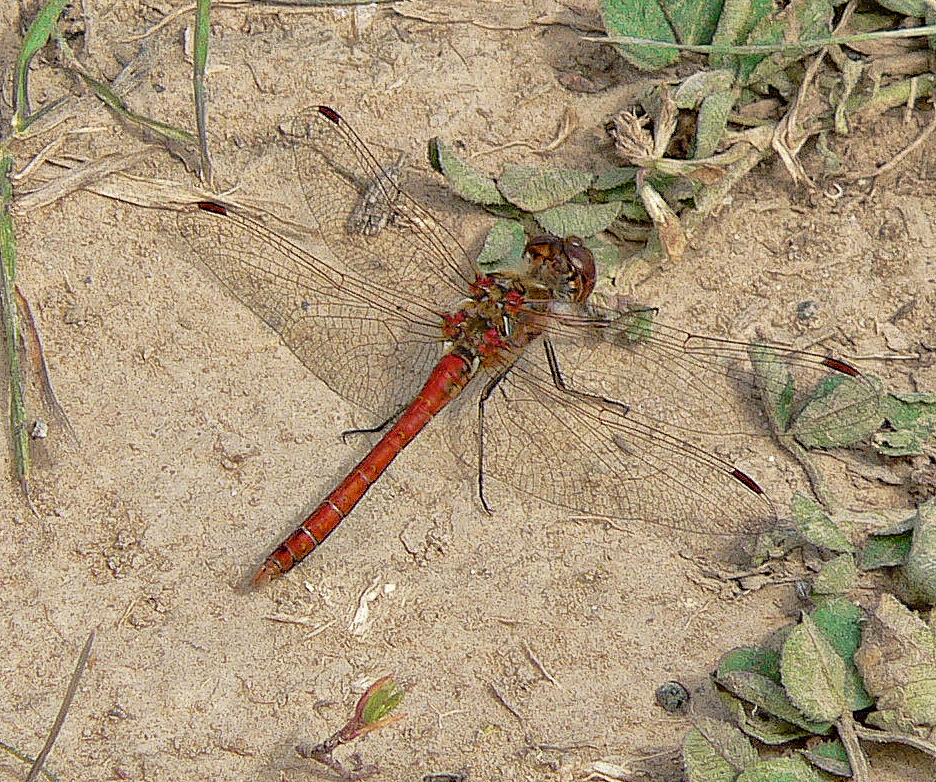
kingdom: Animalia
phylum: Arthropoda
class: Insecta
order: Odonata
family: Libellulidae
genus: Sympetrum
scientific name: Sympetrum vulgatum
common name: Vagrant darter
